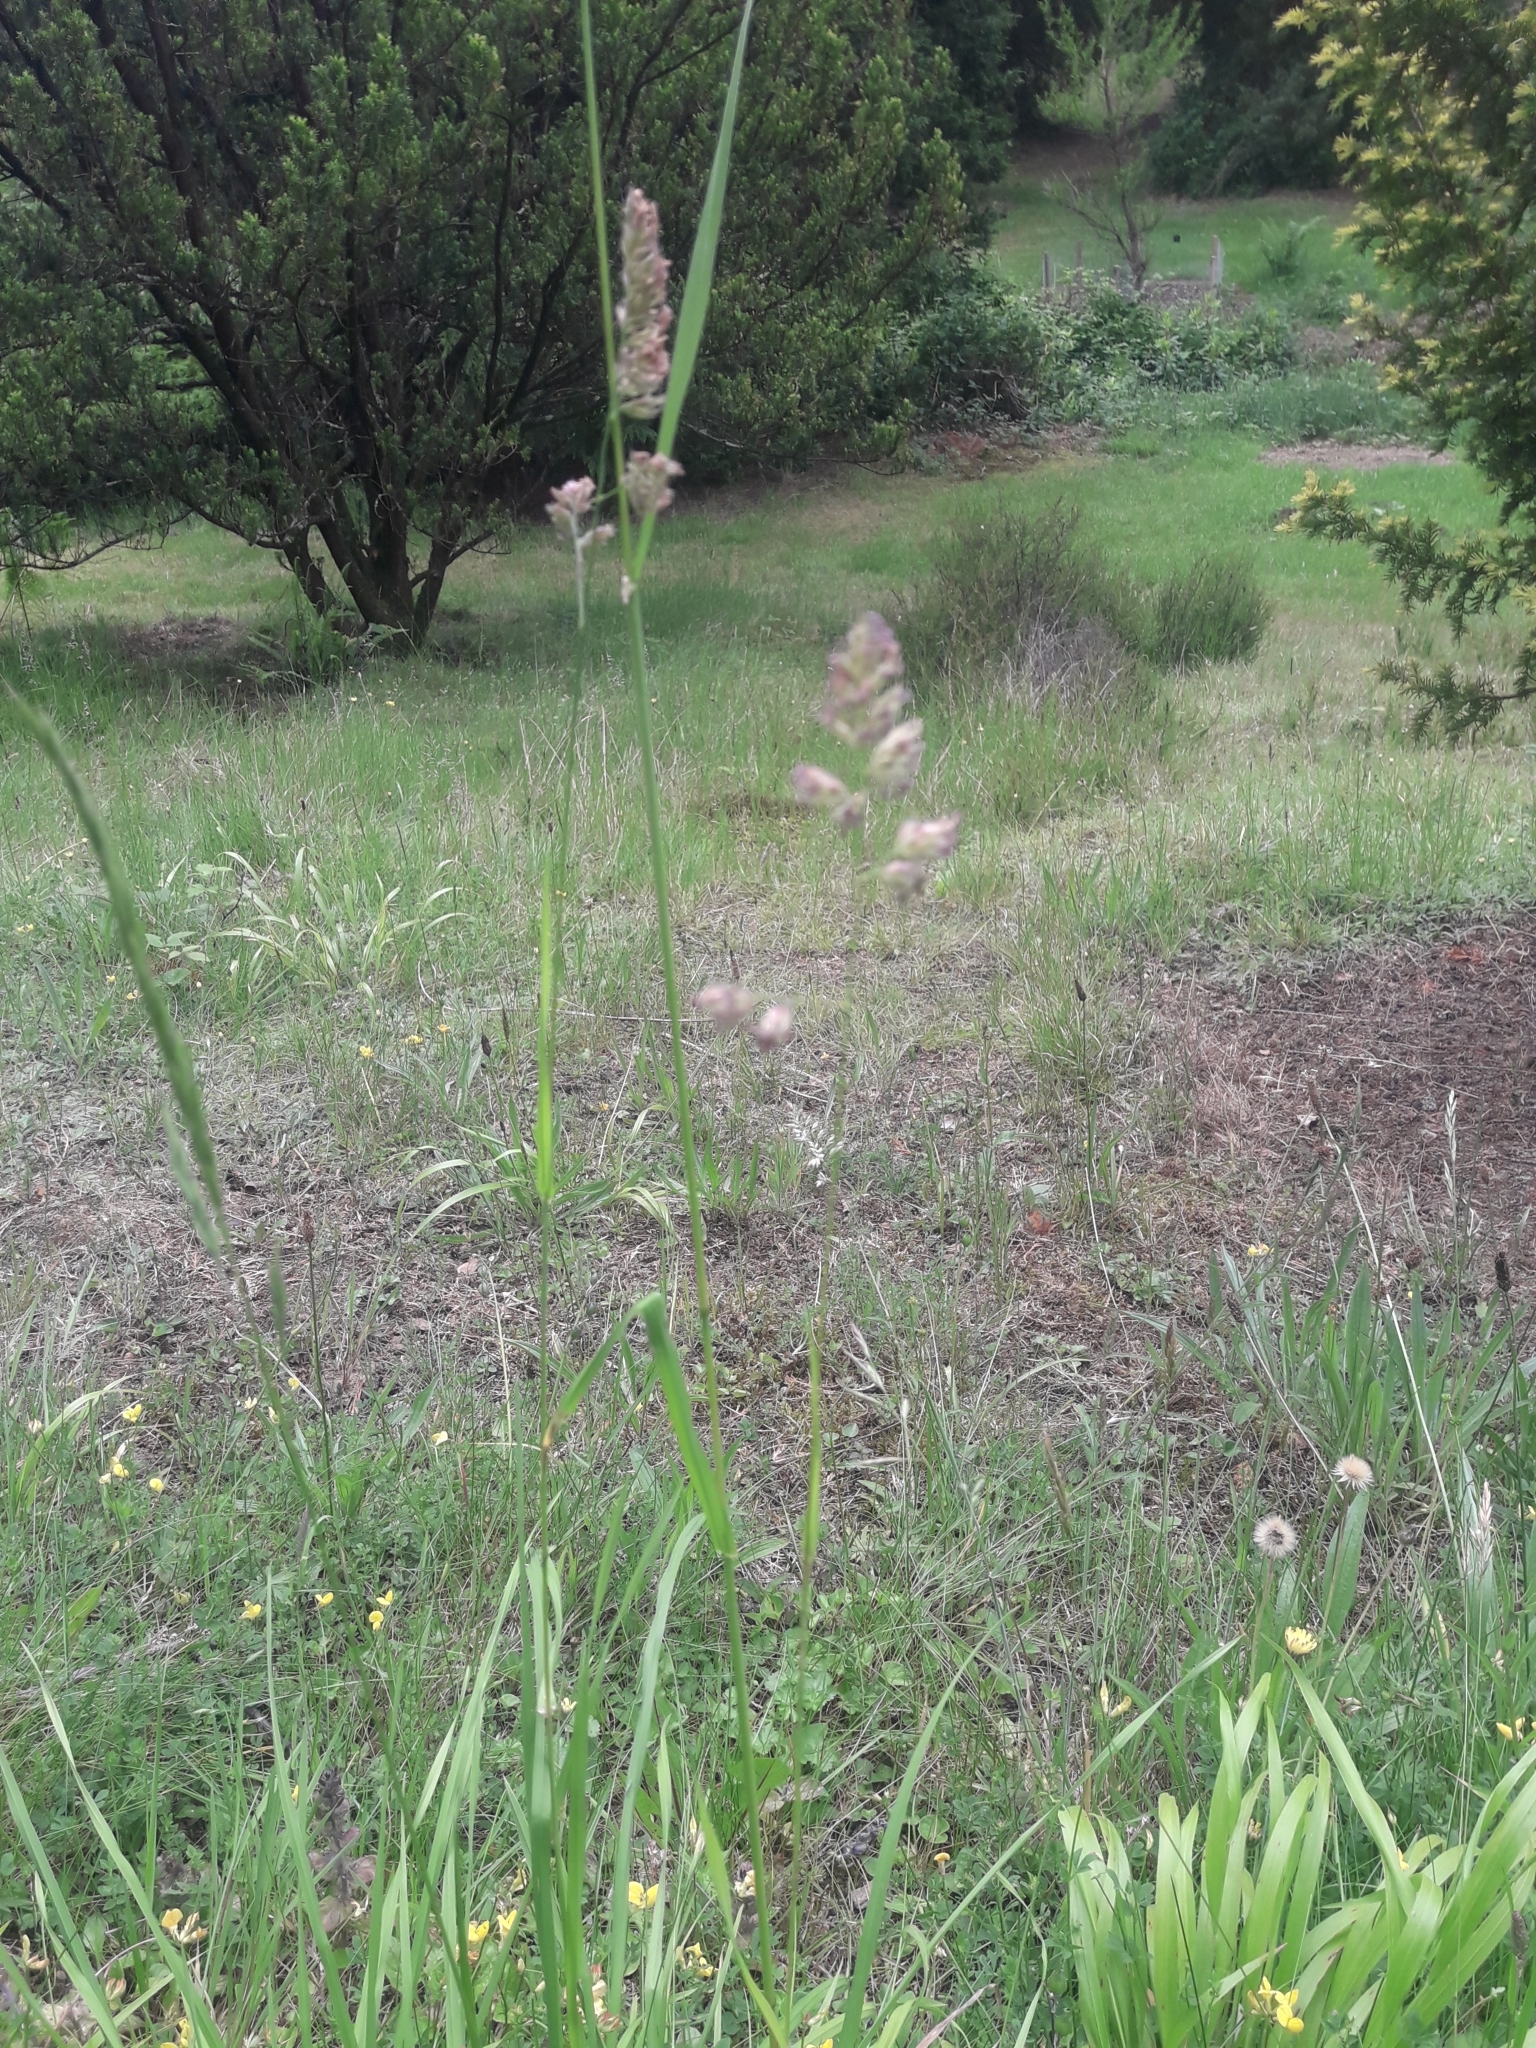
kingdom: Plantae
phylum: Tracheophyta
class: Liliopsida
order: Poales
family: Poaceae
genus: Dactylis
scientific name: Dactylis glomerata
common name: Orchardgrass
